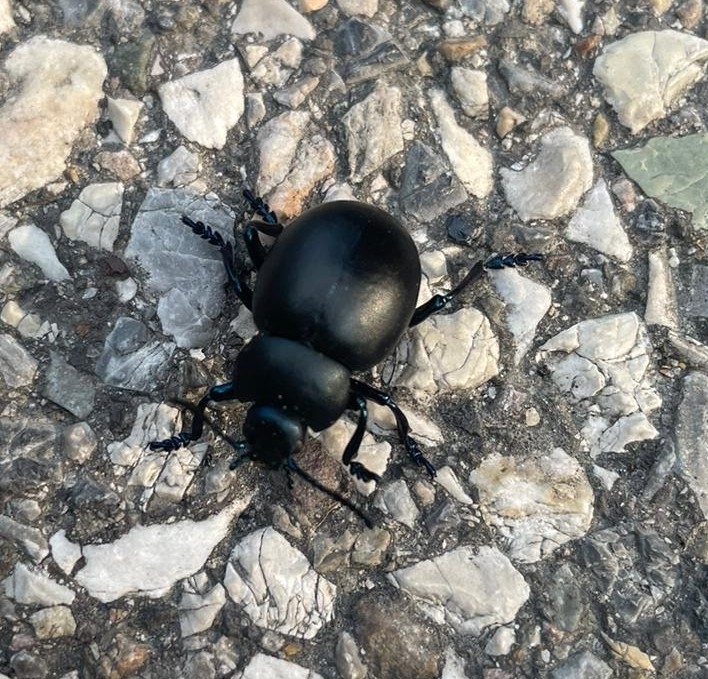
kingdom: Animalia
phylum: Arthropoda
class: Insecta
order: Coleoptera
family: Chrysomelidae
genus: Timarcha
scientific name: Timarcha nicaeensis
